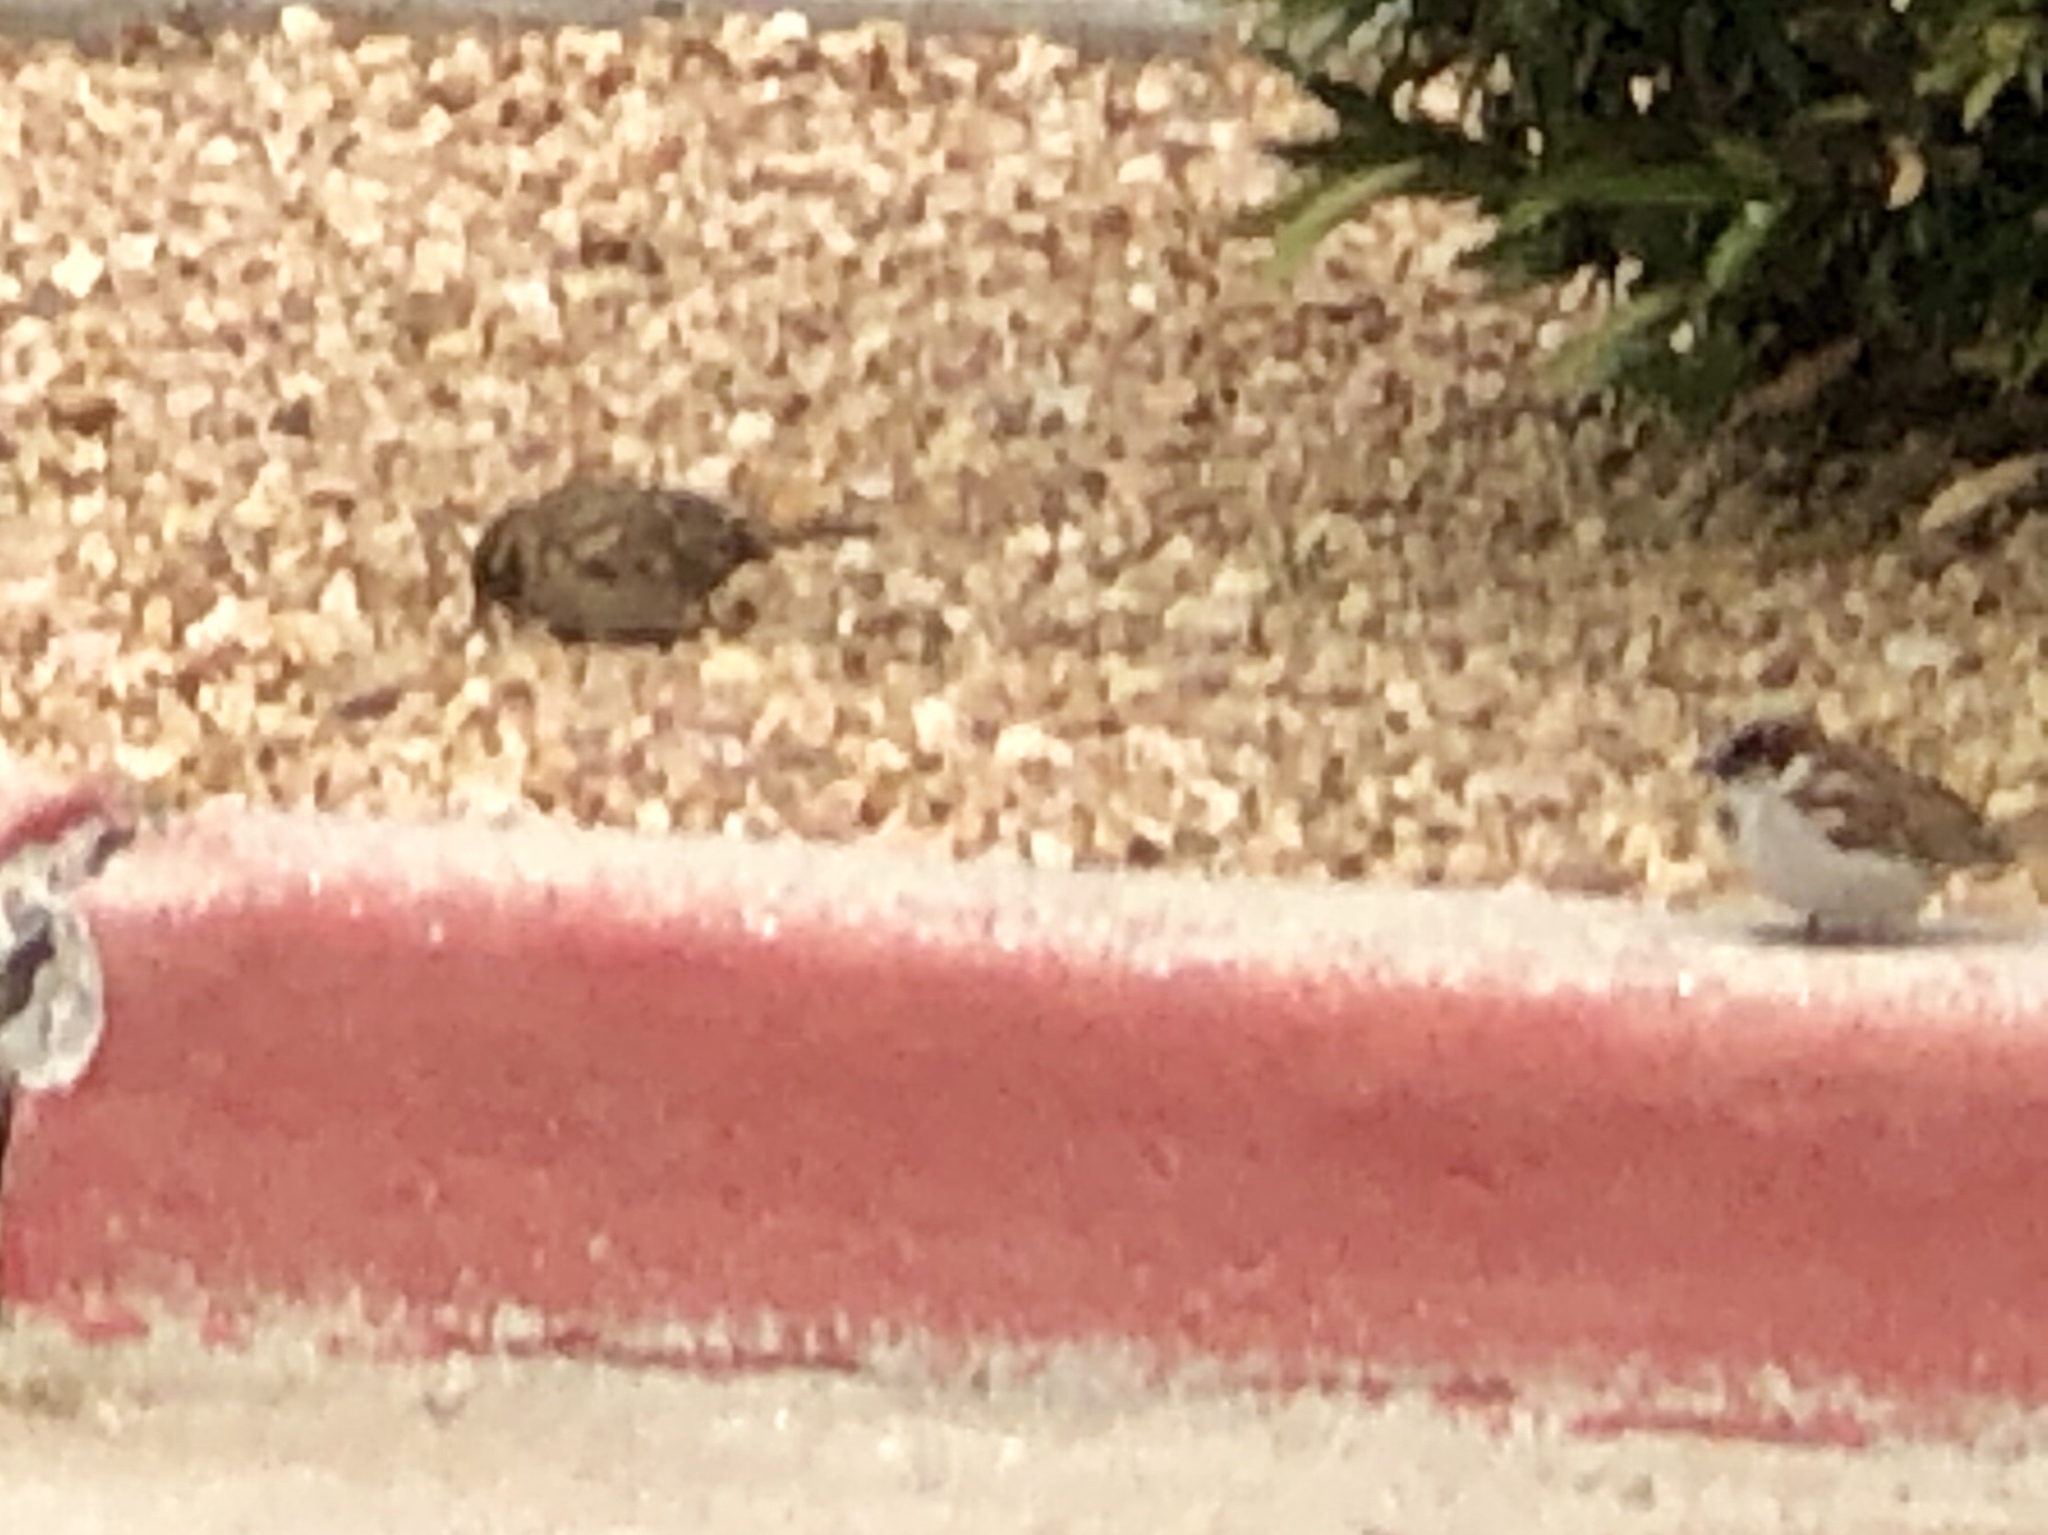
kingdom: Animalia
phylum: Chordata
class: Aves
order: Passeriformes
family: Passeridae
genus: Passer
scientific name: Passer domesticus
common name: House sparrow
